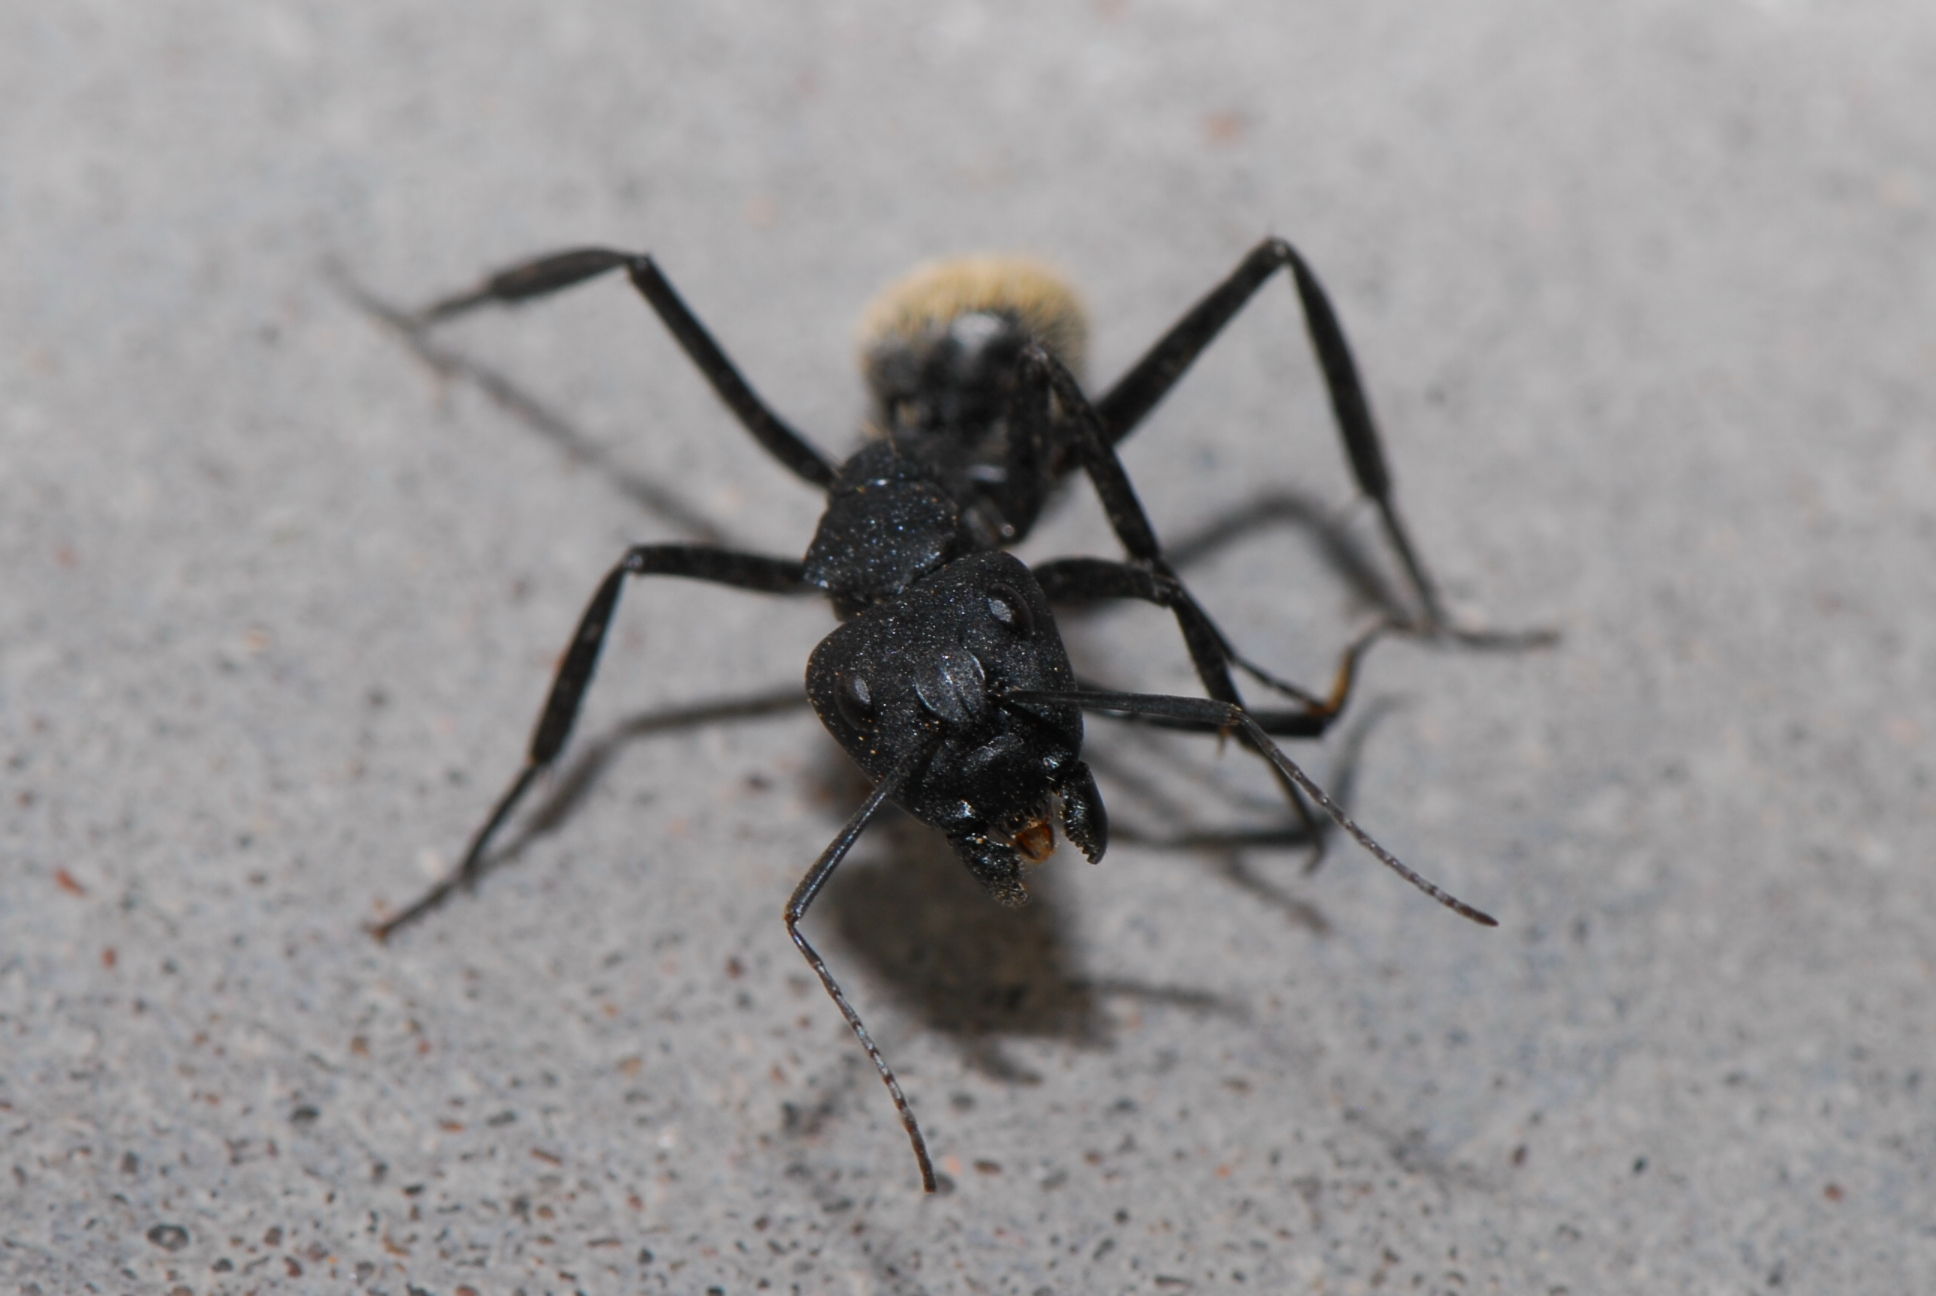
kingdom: Animalia
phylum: Arthropoda
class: Insecta
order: Hymenoptera
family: Formicidae
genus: Camponotus
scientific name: Camponotus fulvopilosus
